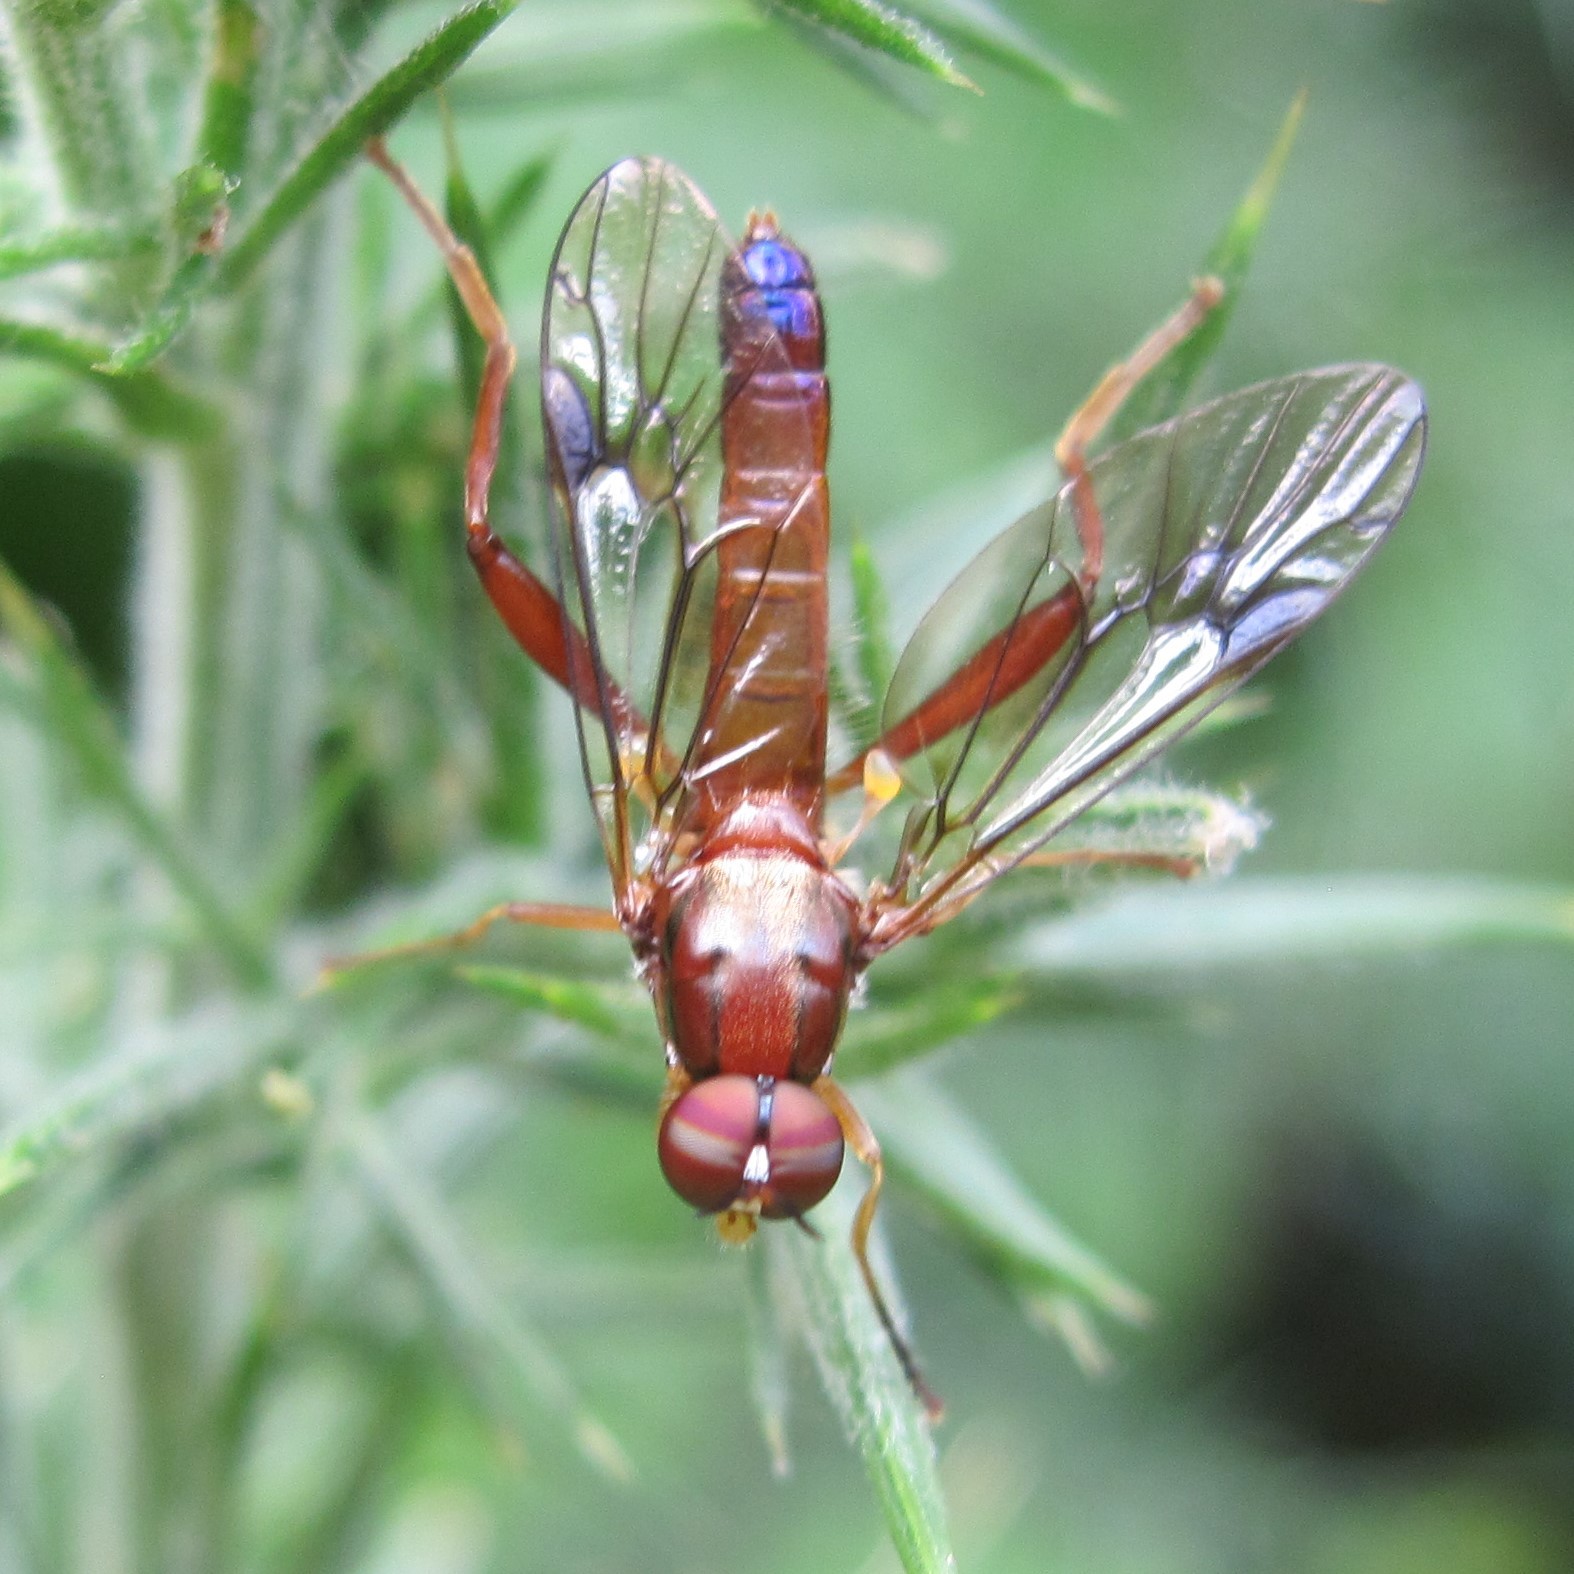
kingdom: Animalia
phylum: Arthropoda
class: Insecta
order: Diptera
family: Stratiomyidae
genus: Benhamyia
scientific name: Benhamyia straznitzkii
